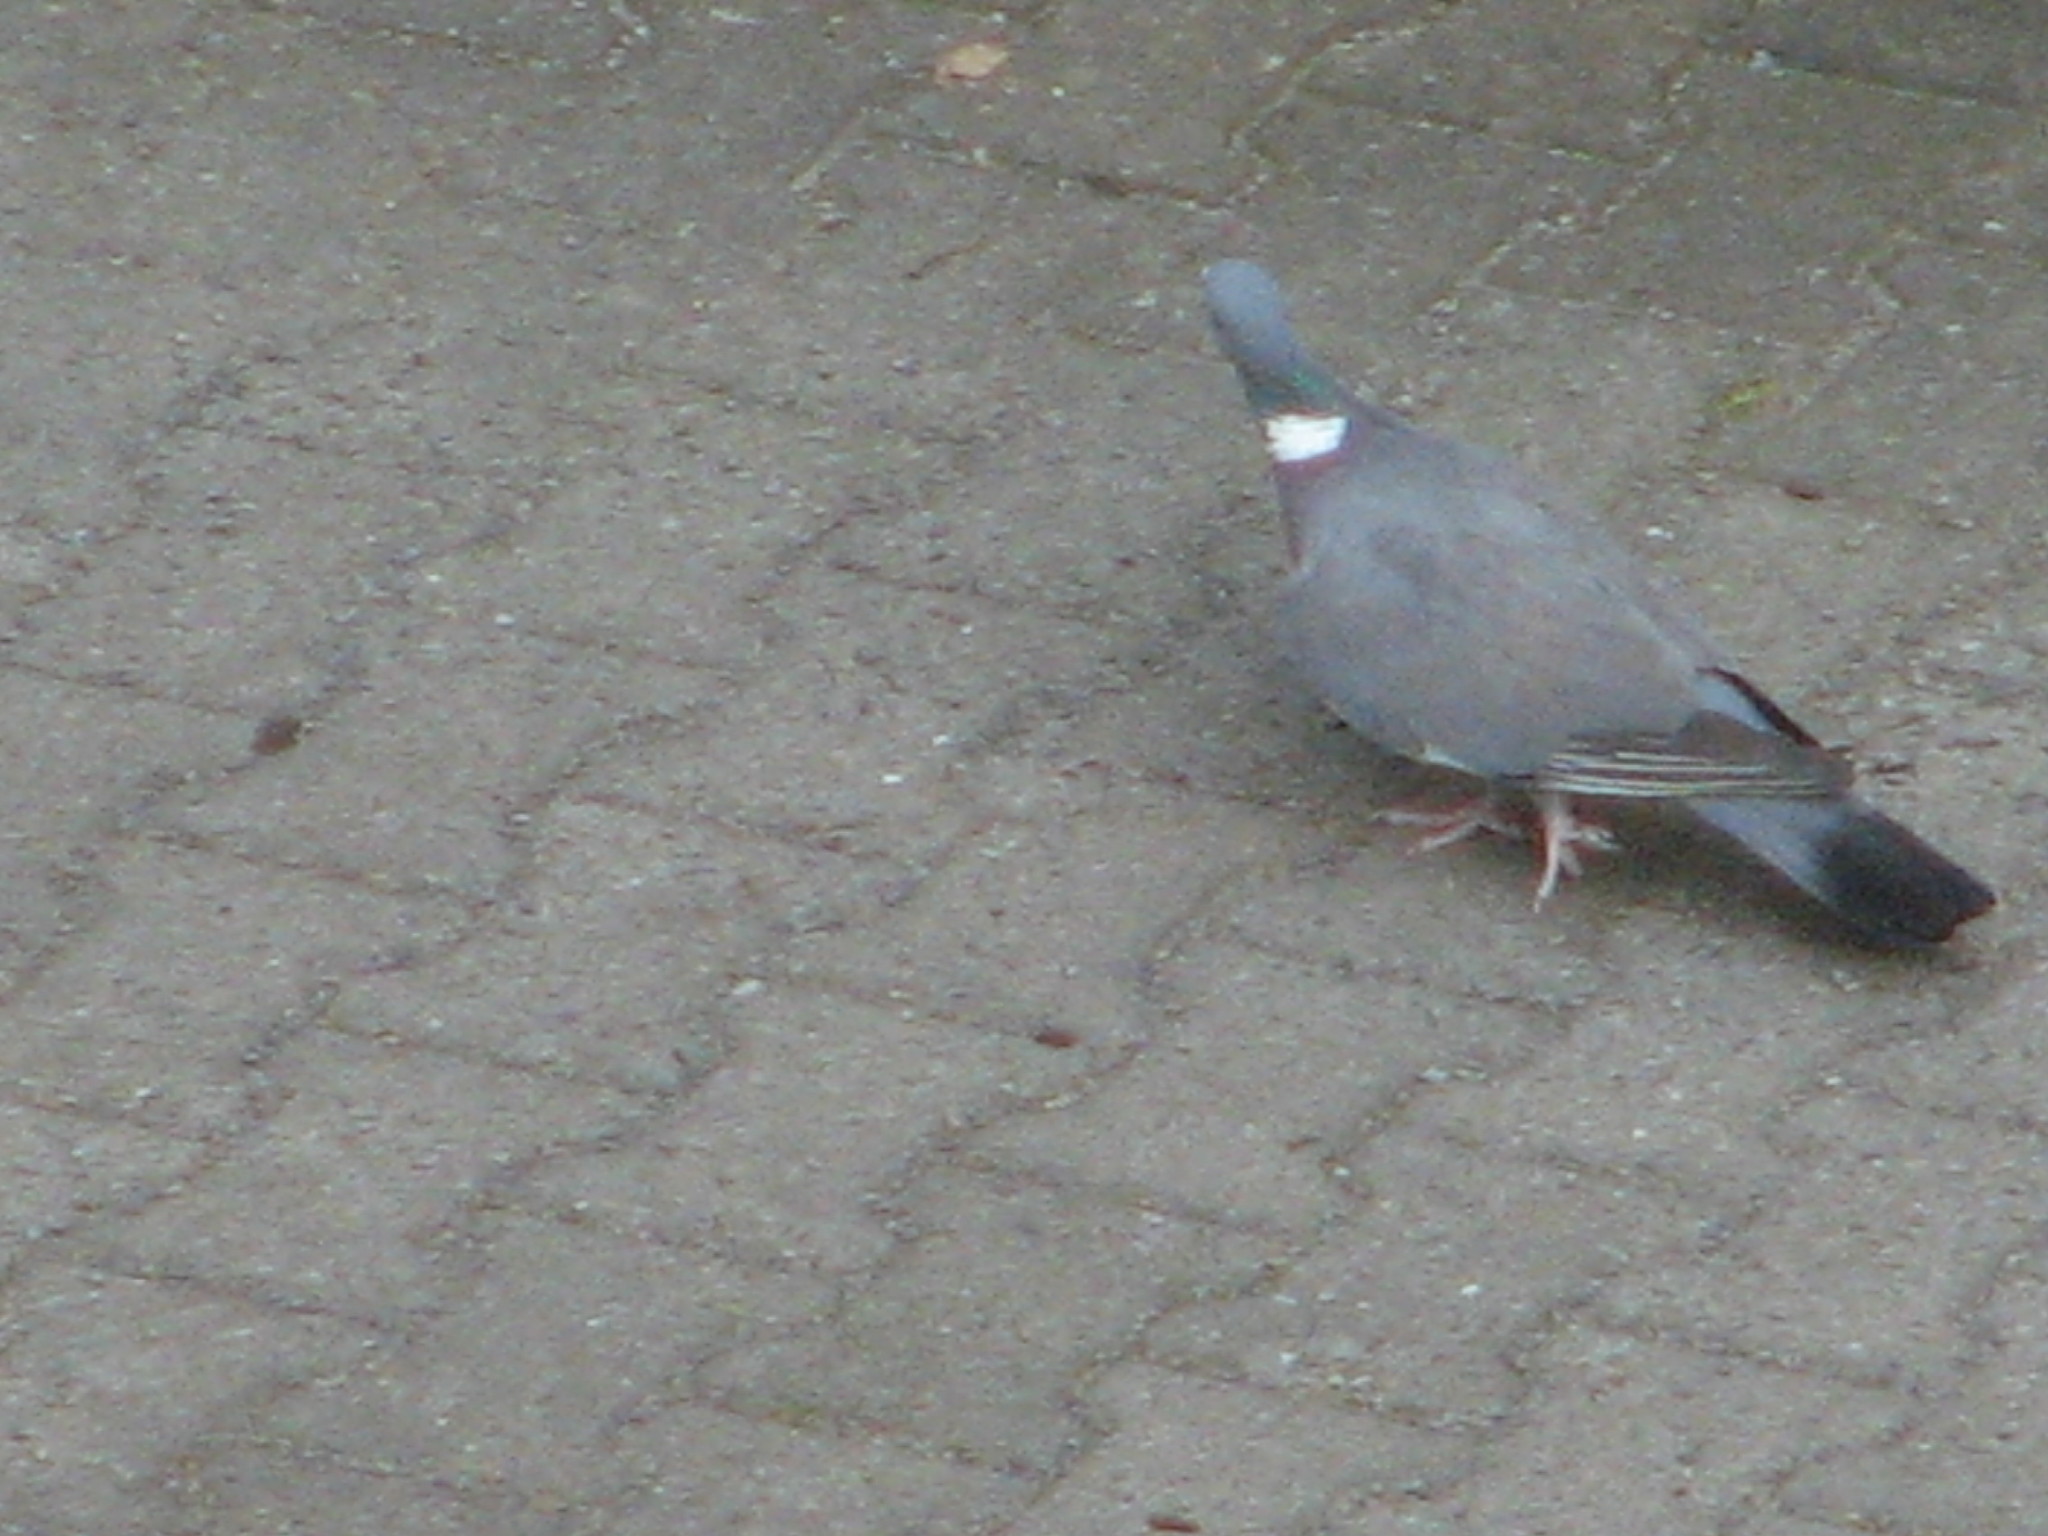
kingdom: Animalia
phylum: Chordata
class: Aves
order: Columbiformes
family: Columbidae
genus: Columba
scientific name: Columba palumbus
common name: Common wood pigeon
